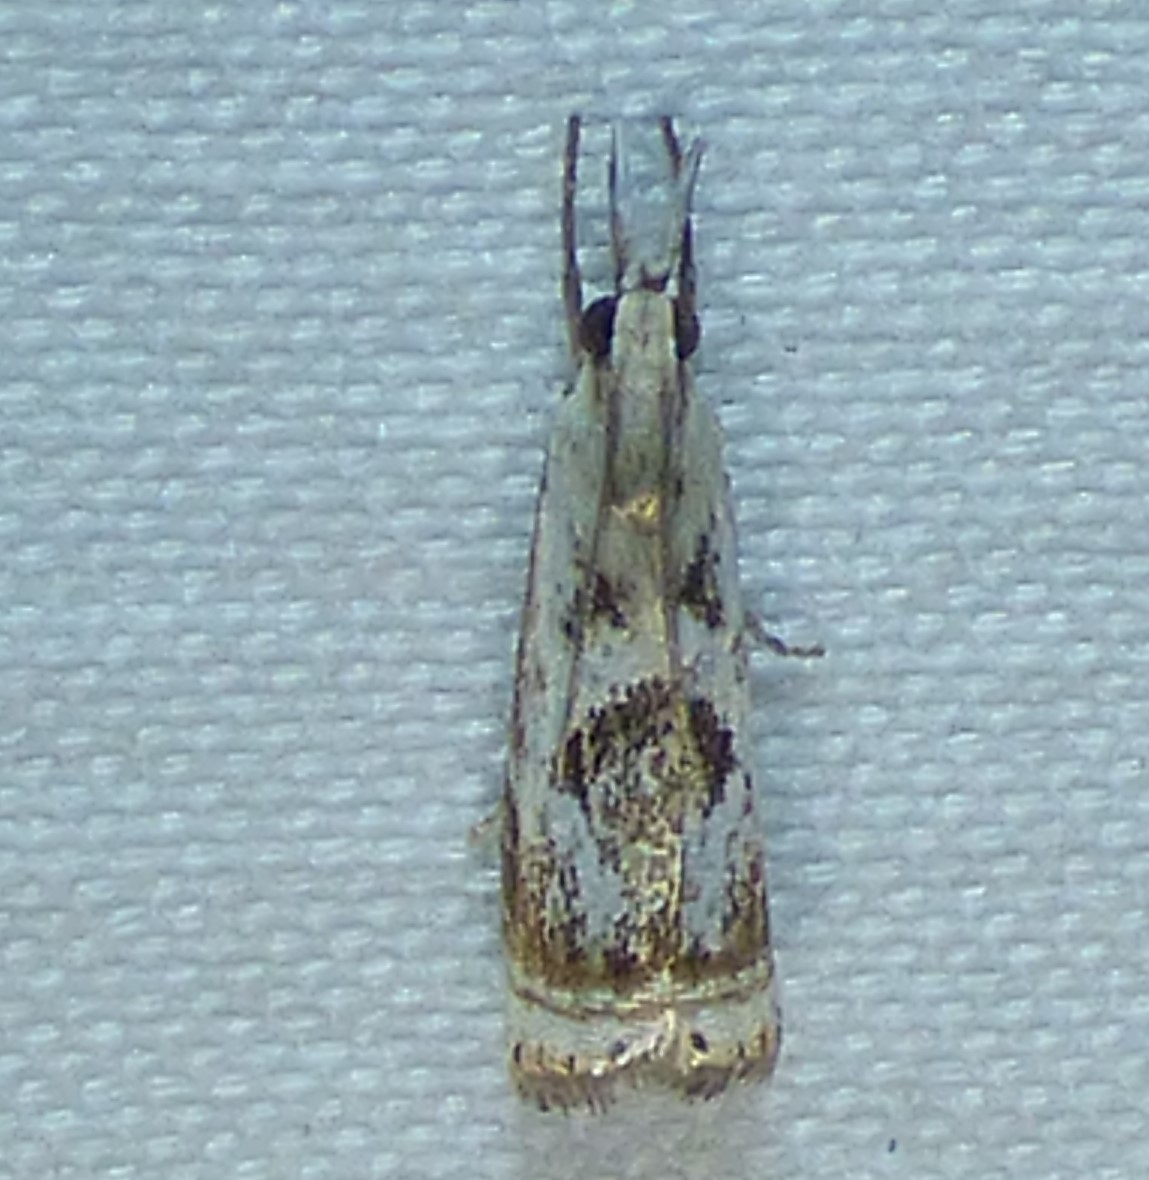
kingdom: Animalia
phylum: Arthropoda
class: Insecta
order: Lepidoptera
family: Crambidae
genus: Microcrambus
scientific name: Microcrambus elegans
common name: Elegant grass-veneer
